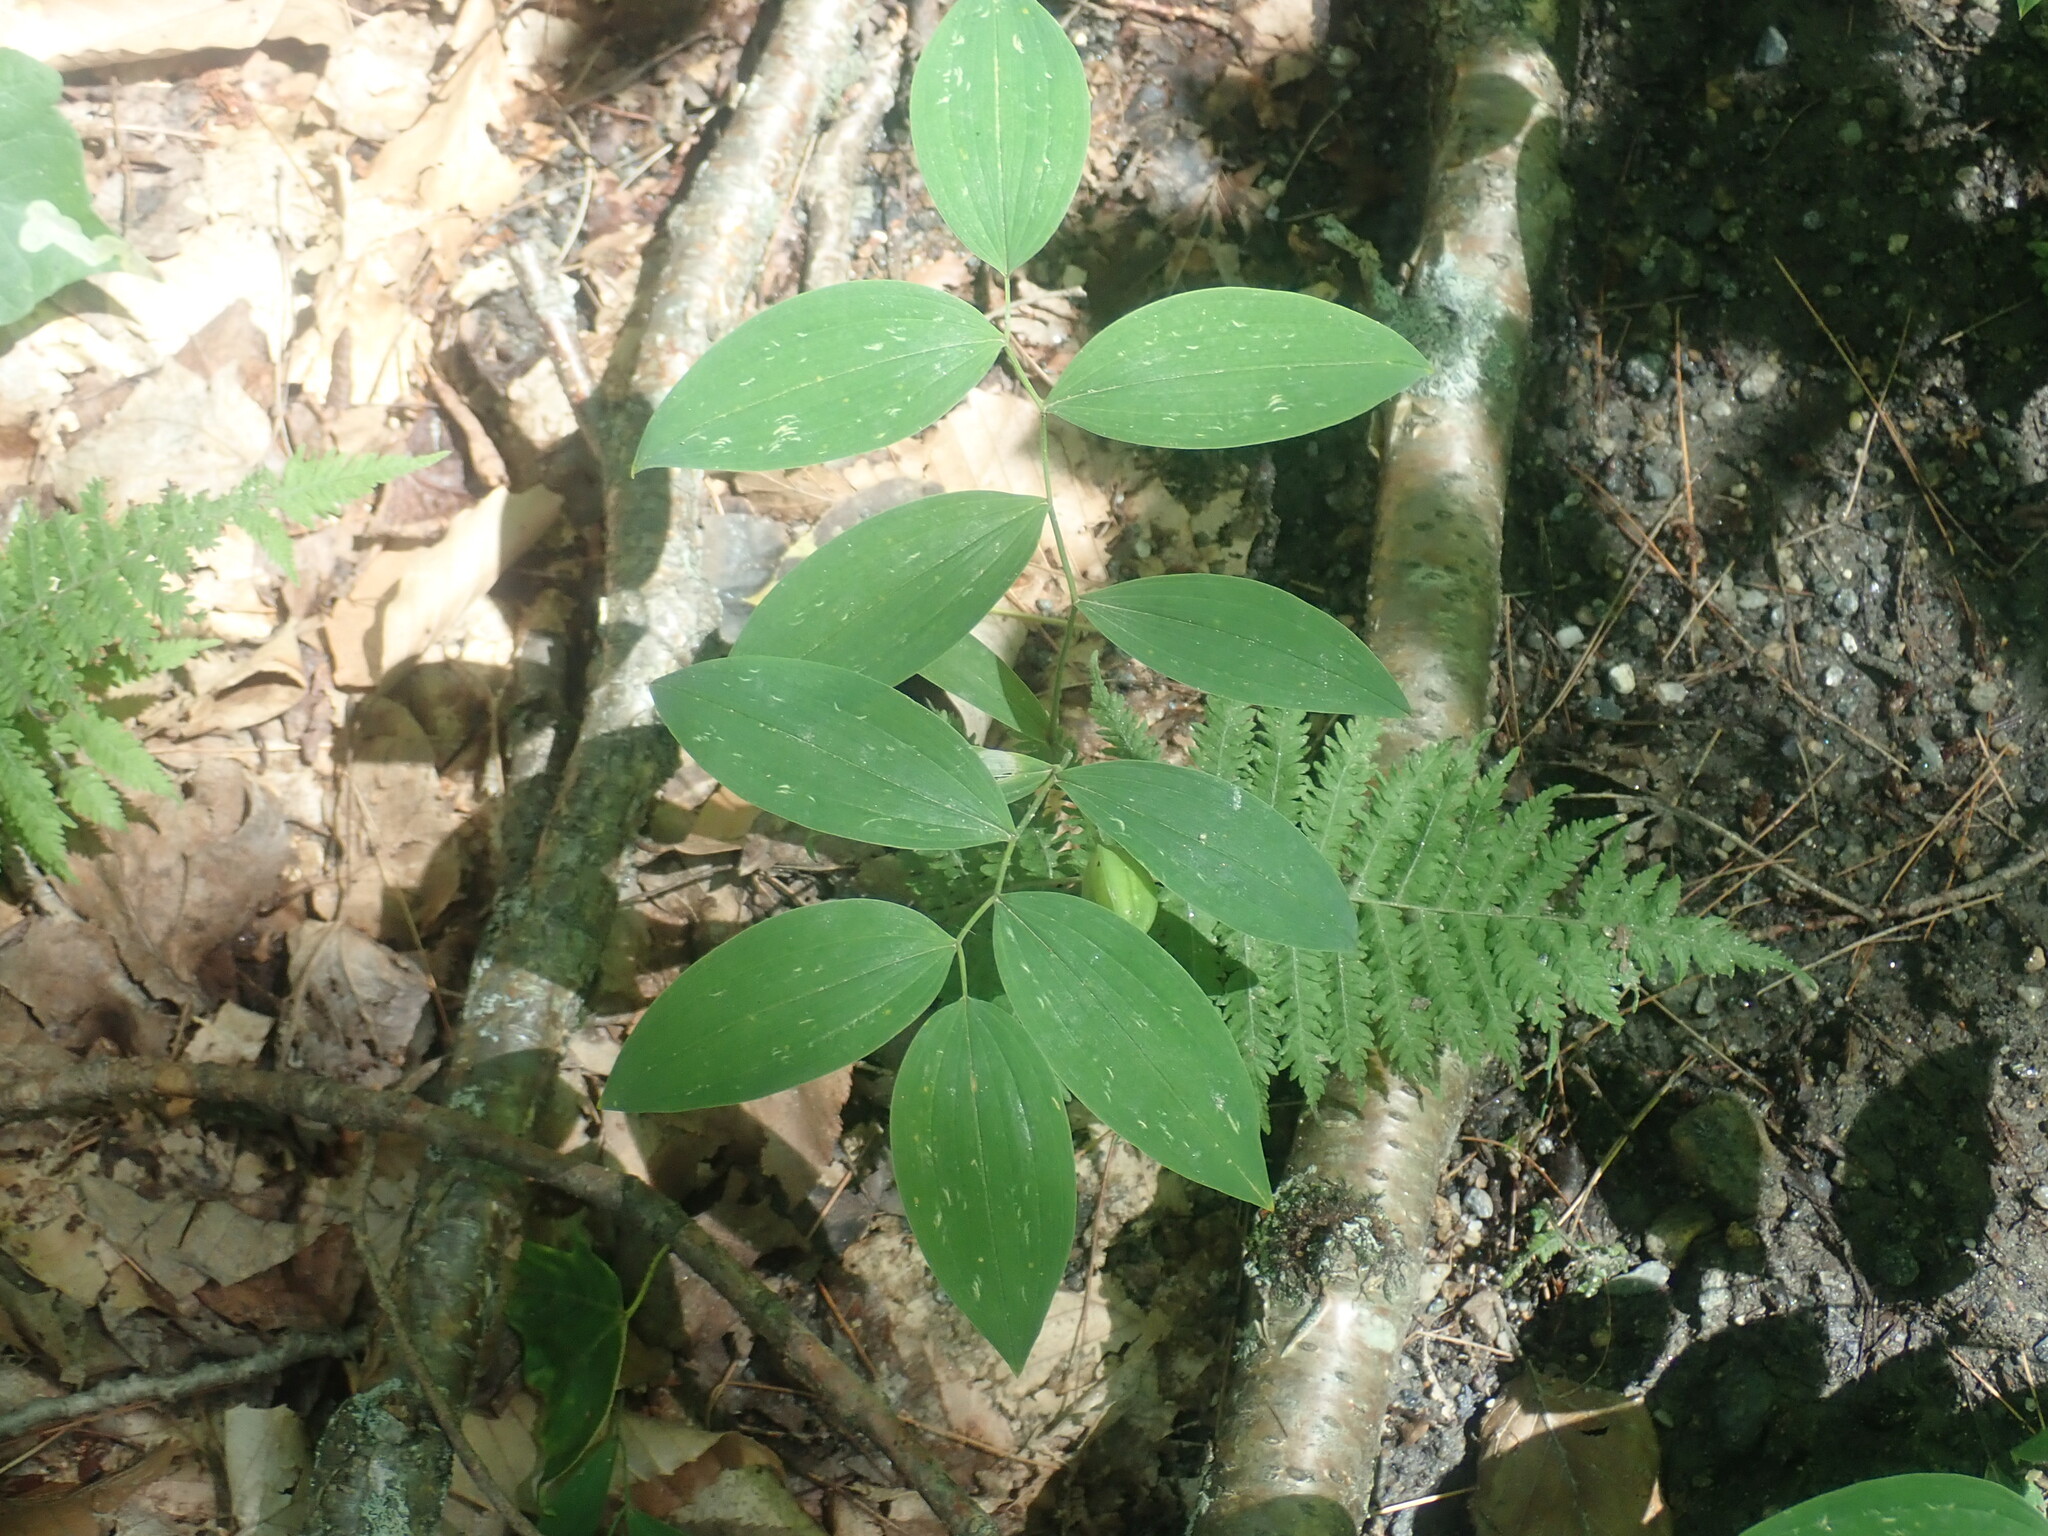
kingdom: Plantae
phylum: Tracheophyta
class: Liliopsida
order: Liliales
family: Colchicaceae
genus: Uvularia
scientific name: Uvularia sessilifolia
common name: Straw-lily
